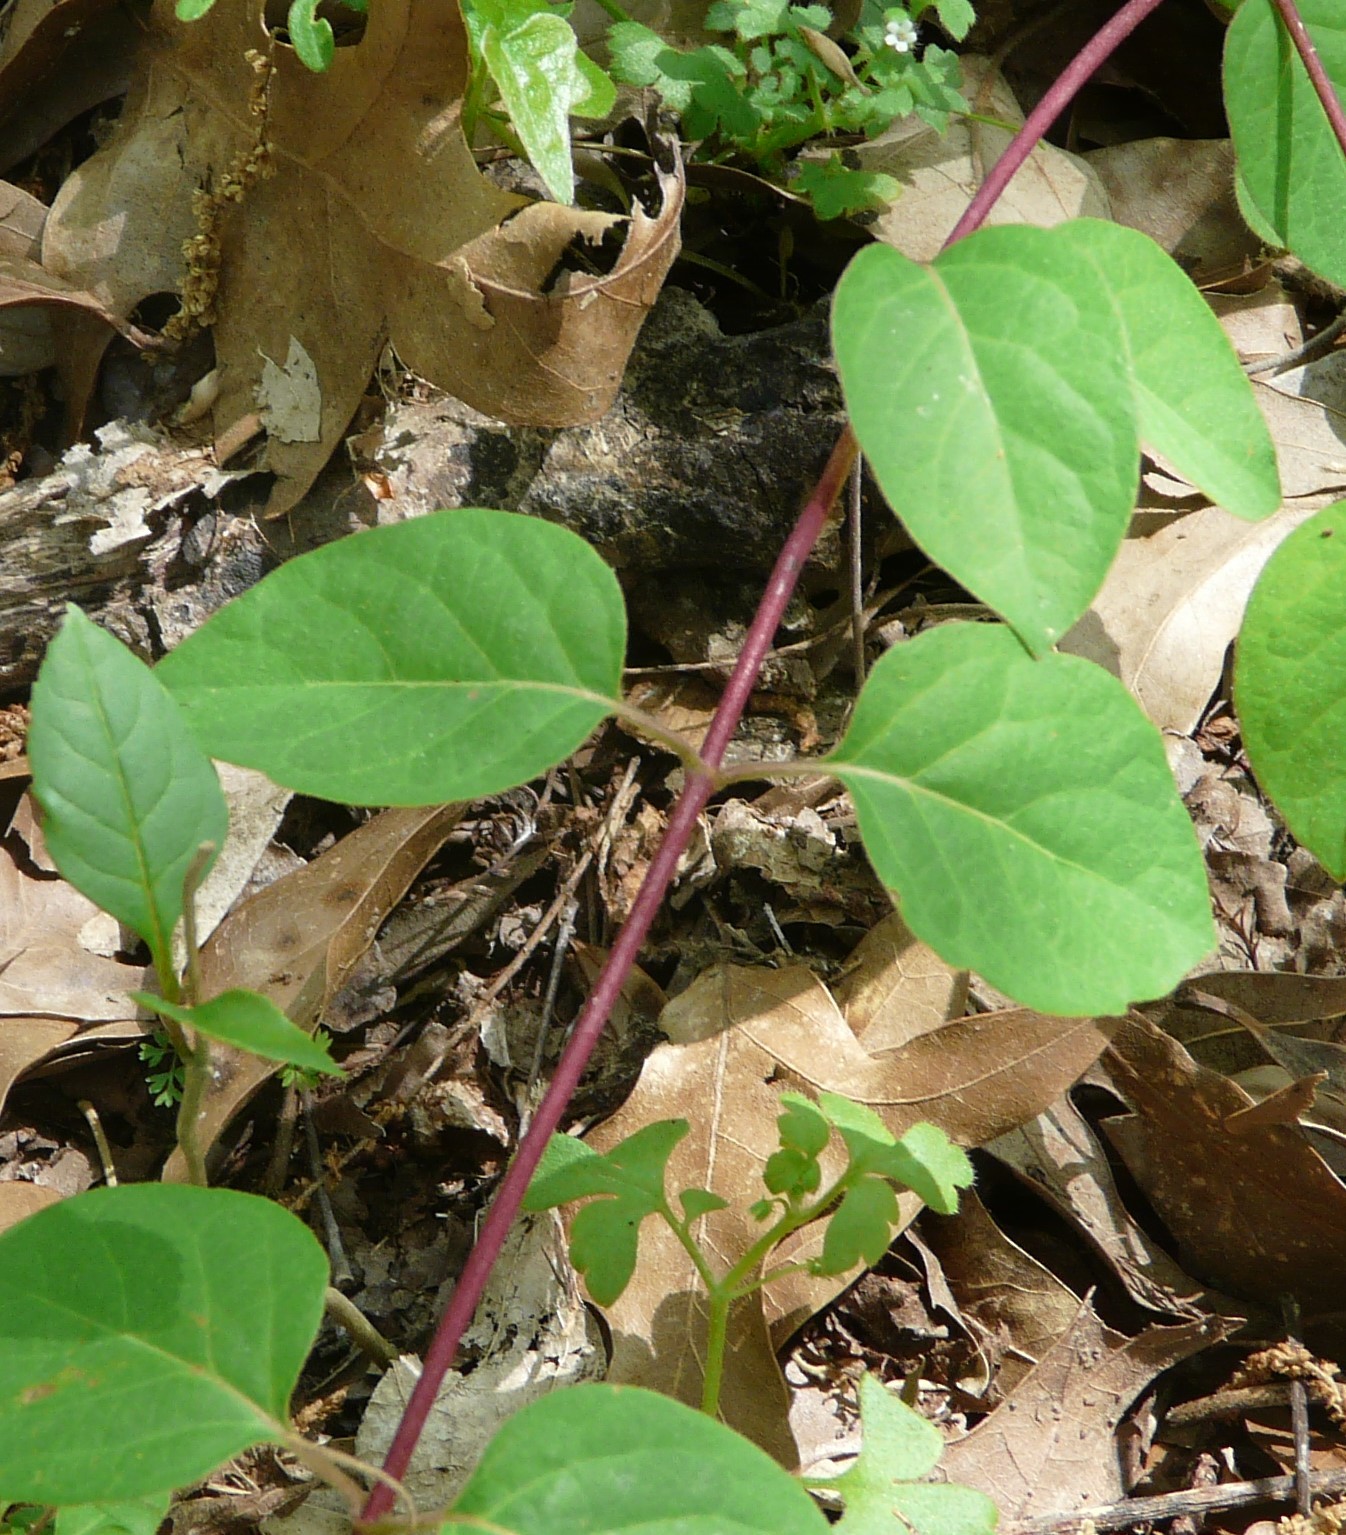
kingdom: Plantae
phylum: Tracheophyta
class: Magnoliopsida
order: Dipsacales
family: Caprifoliaceae
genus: Lonicera
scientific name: Lonicera japonica
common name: Japanese honeysuckle
